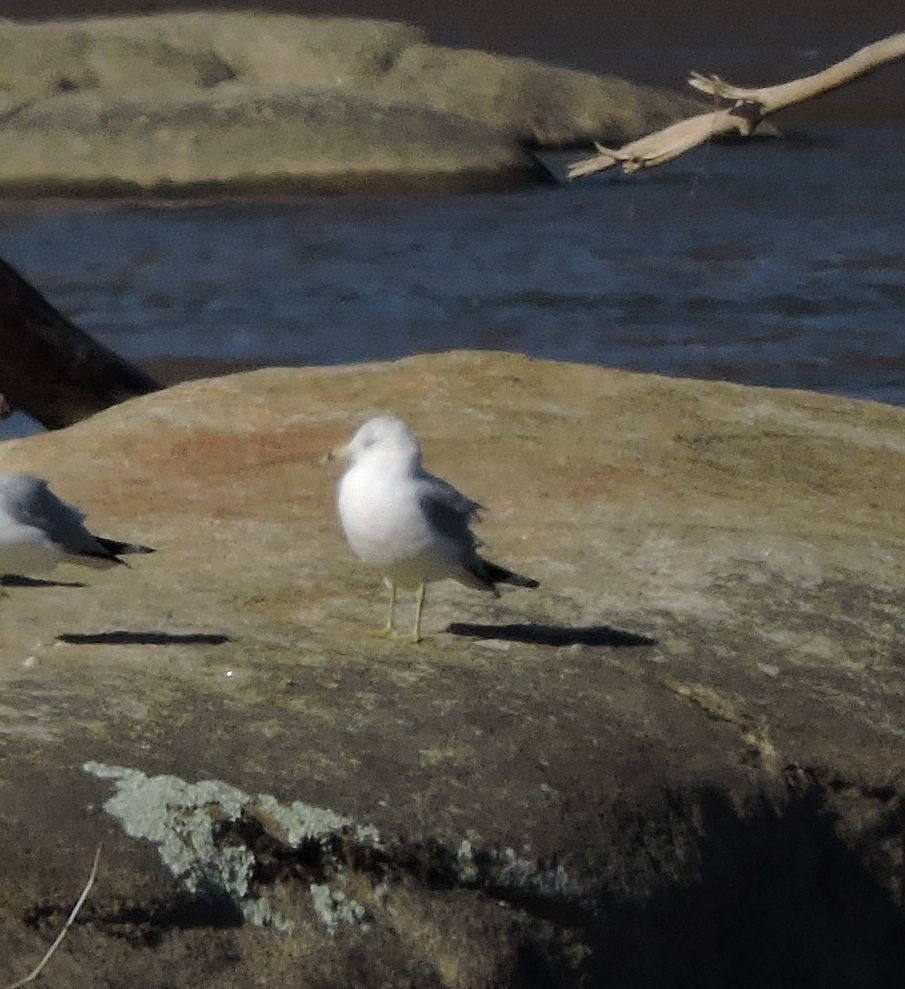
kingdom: Animalia
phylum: Chordata
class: Aves
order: Charadriiformes
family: Laridae
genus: Larus
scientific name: Larus delawarensis
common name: Ring-billed gull
